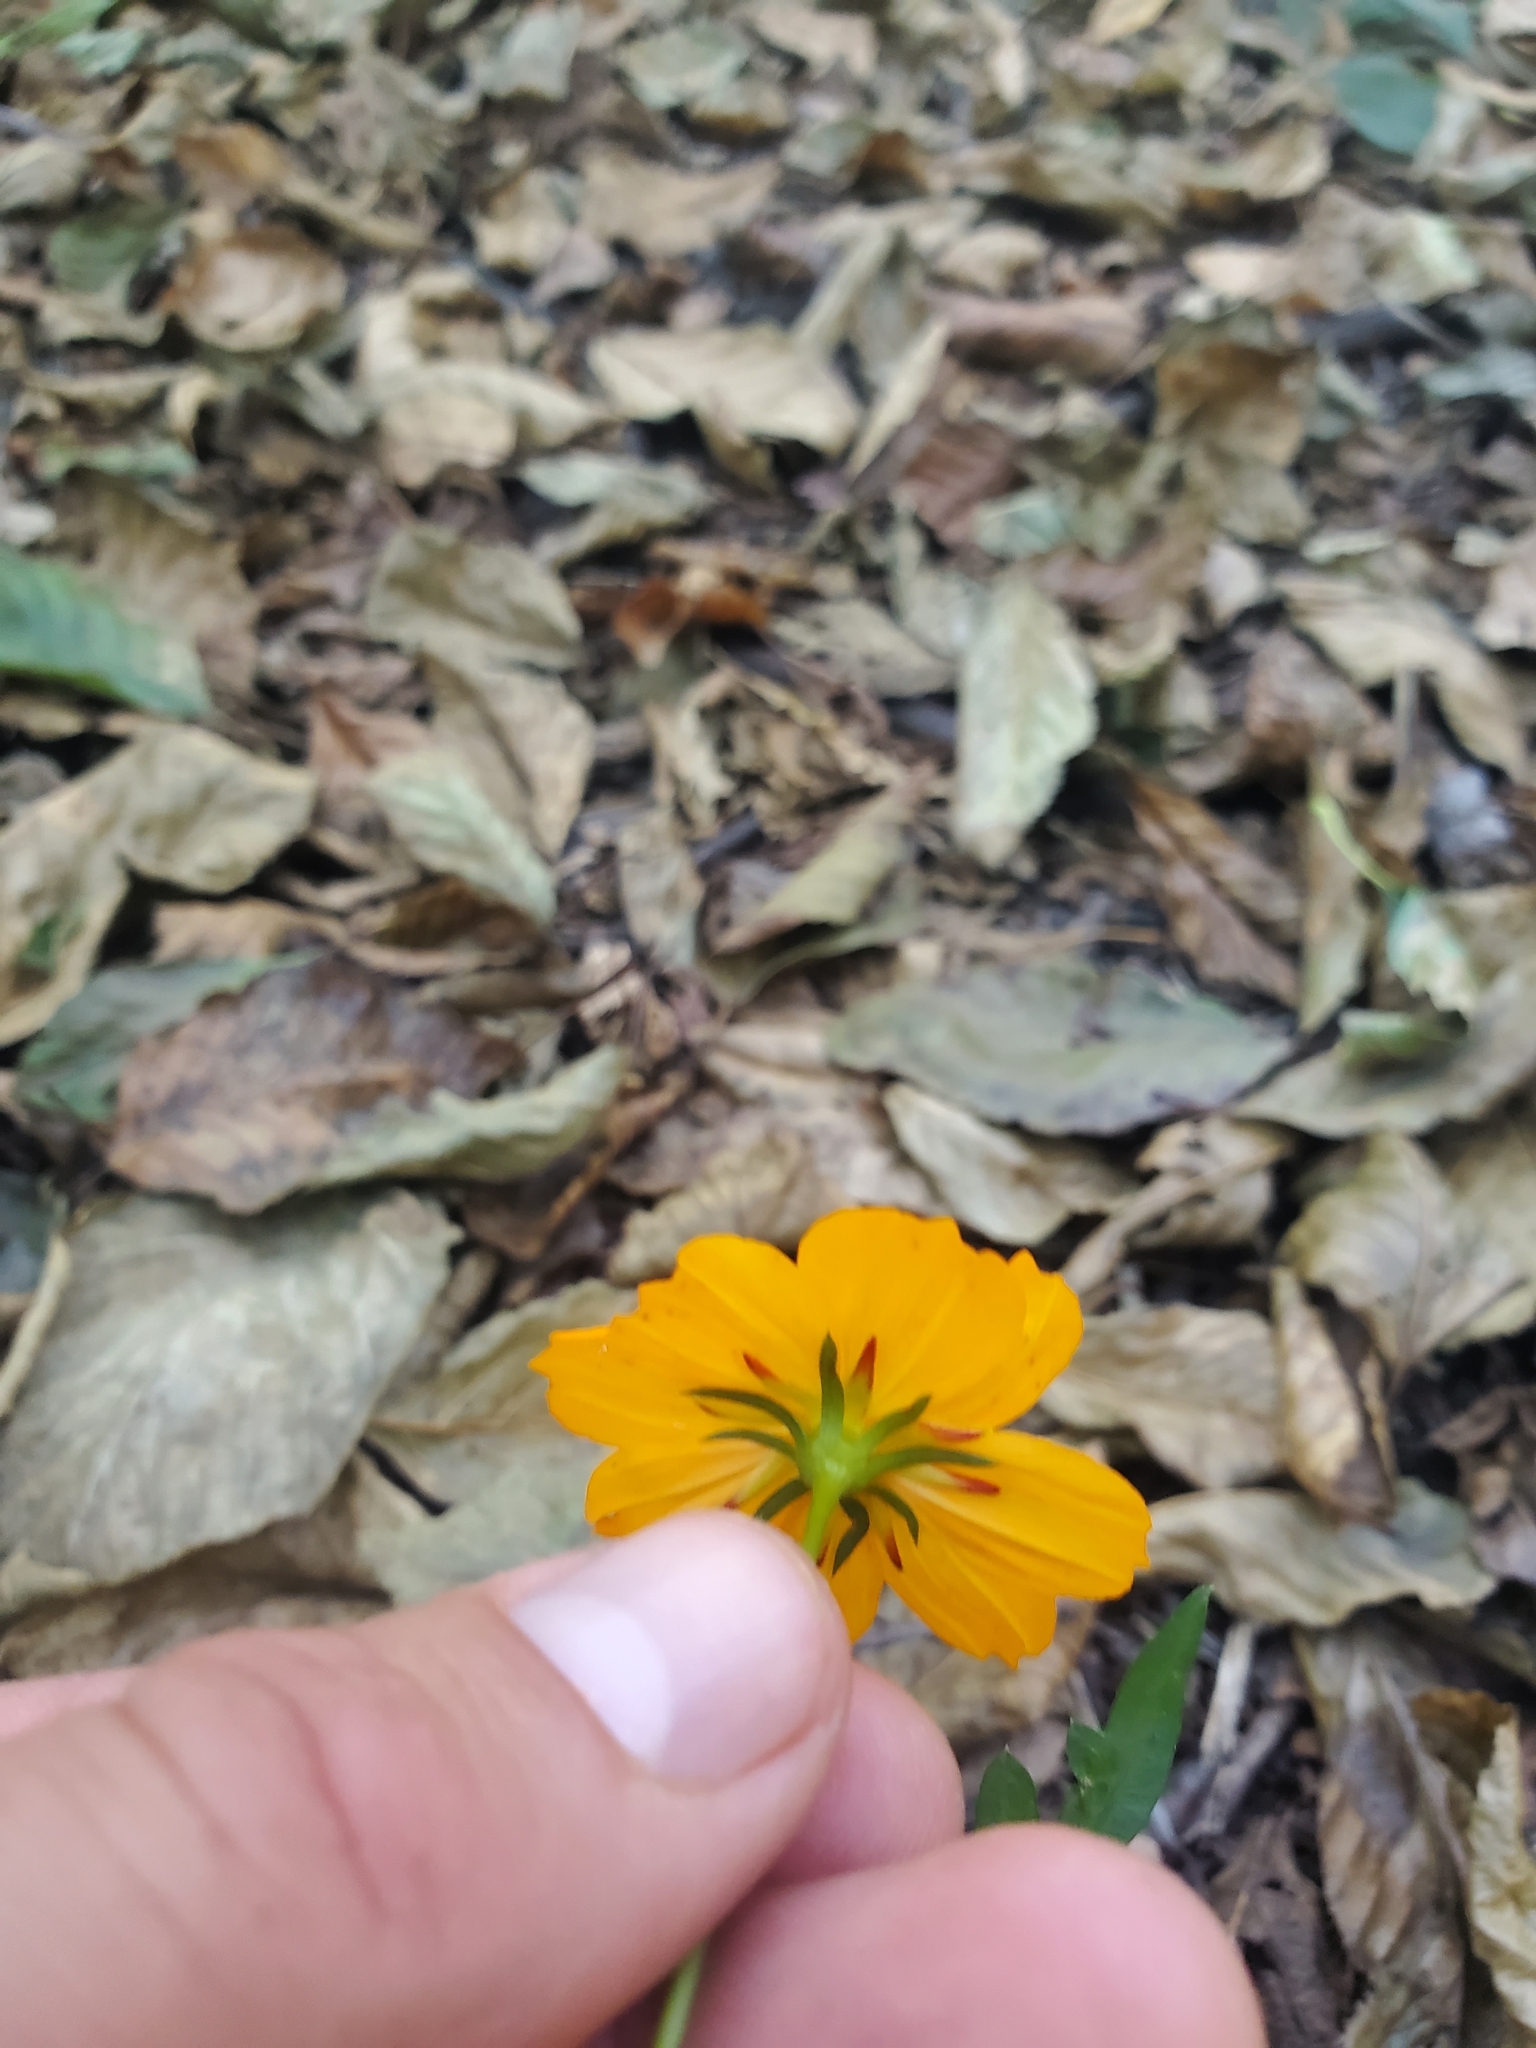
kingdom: Plantae
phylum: Tracheophyta
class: Magnoliopsida
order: Asterales
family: Asteraceae
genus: Cosmos
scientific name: Cosmos sulphureus
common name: Sulphur cosmos
